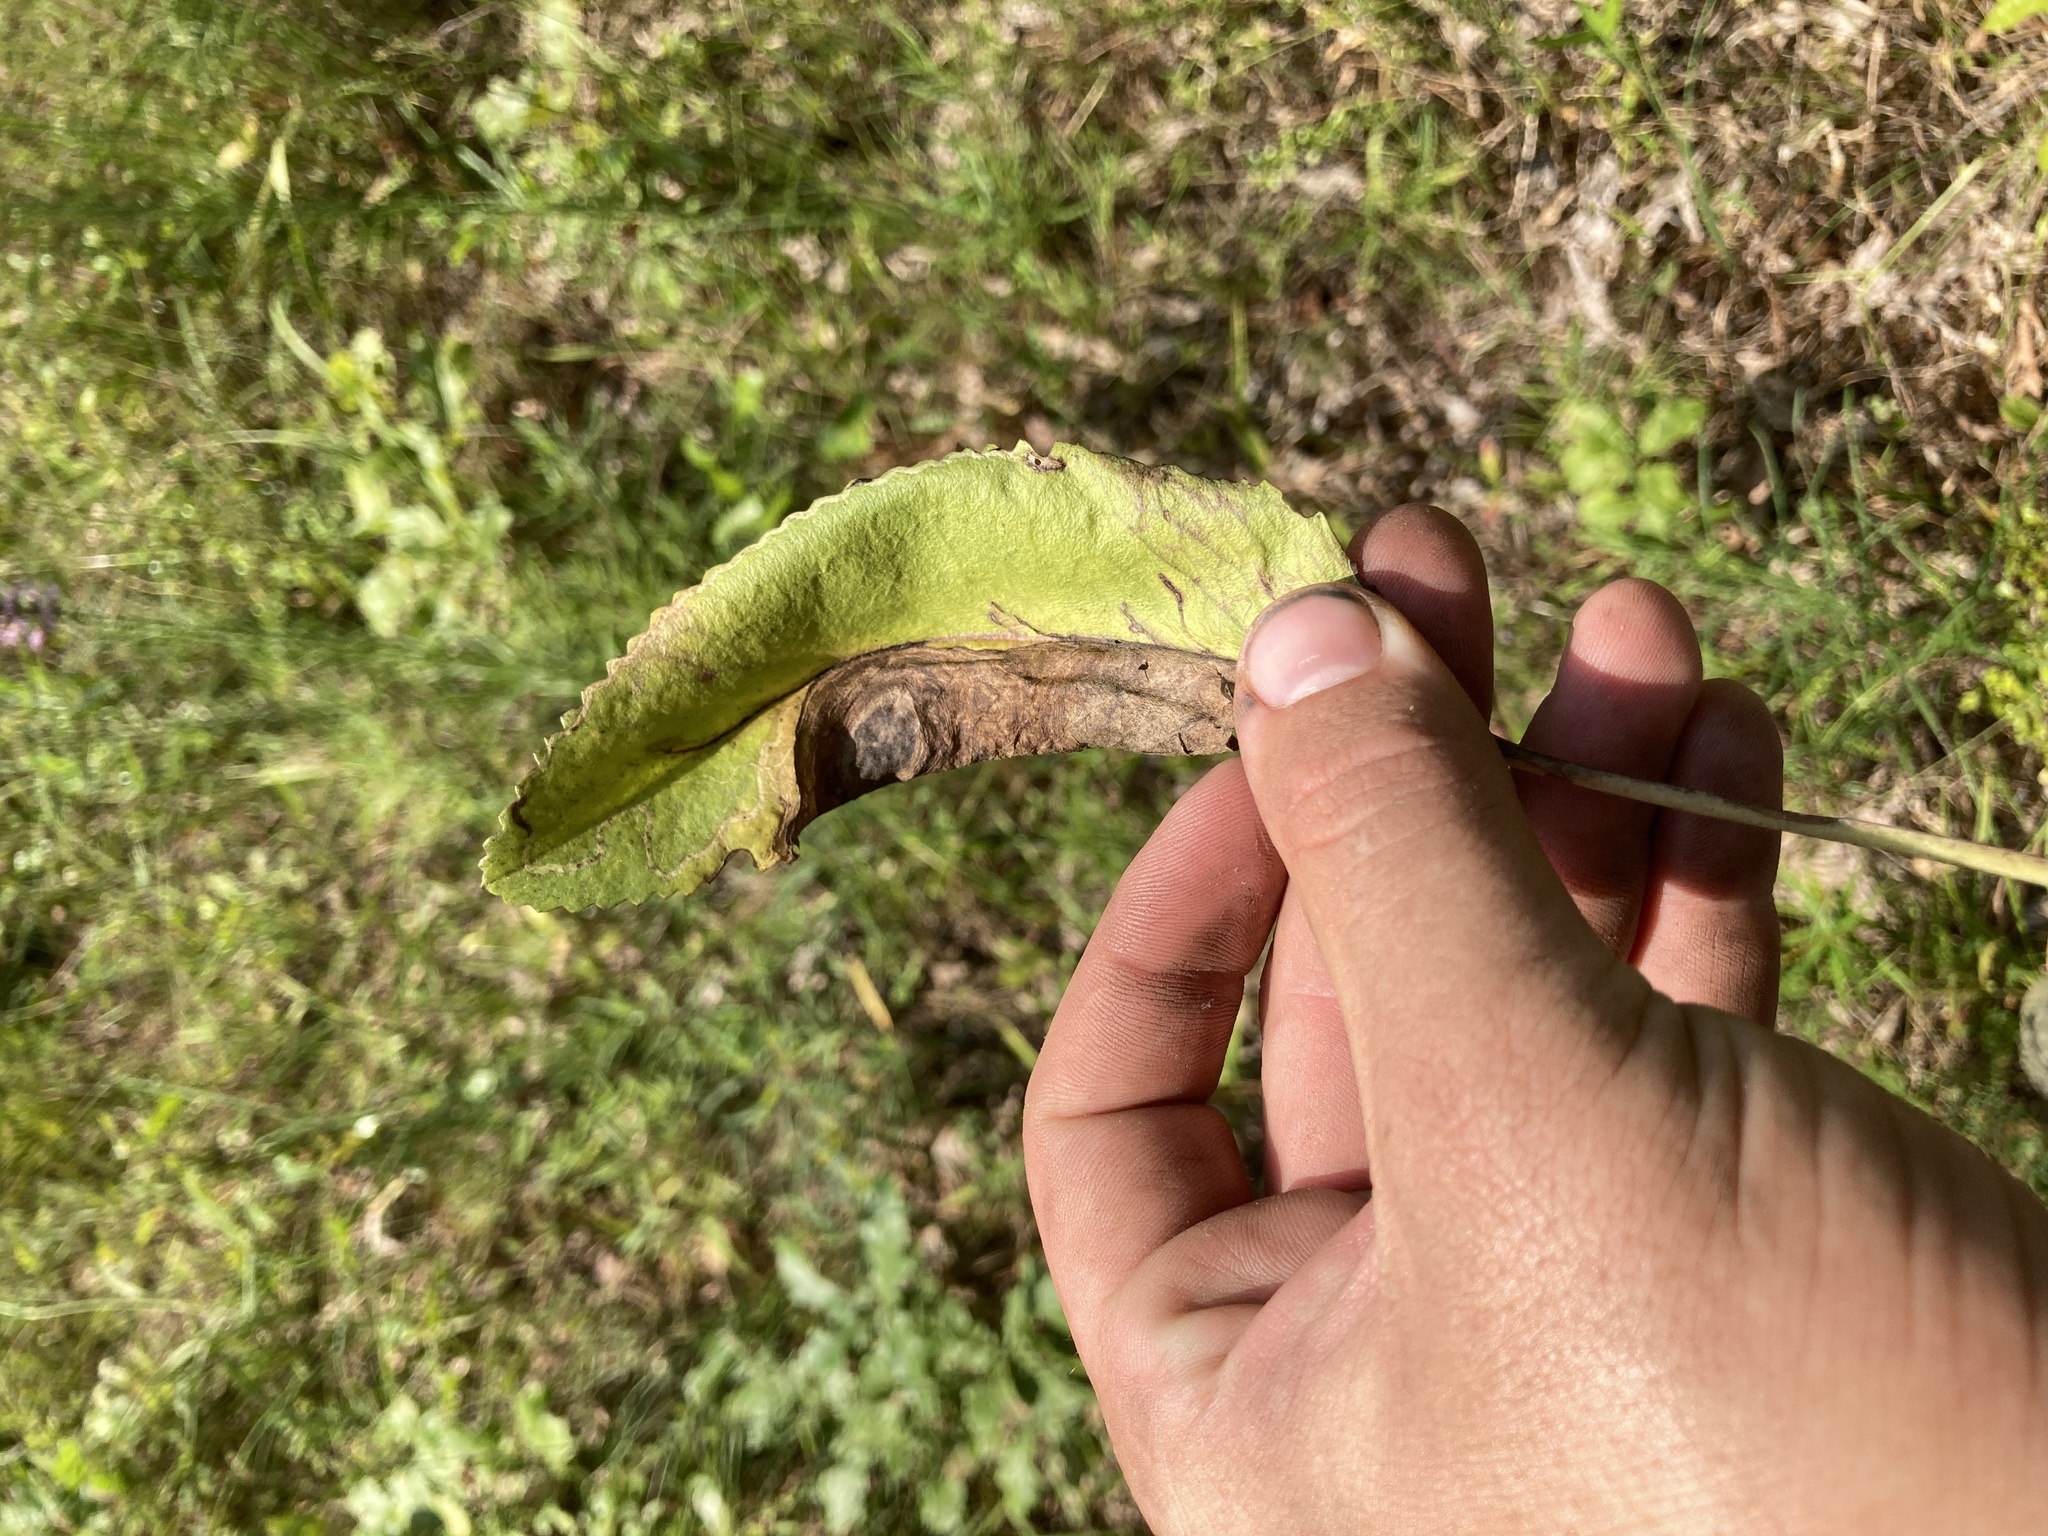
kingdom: Plantae
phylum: Tracheophyta
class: Magnoliopsida
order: Asterales
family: Asteraceae
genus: Packera
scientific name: Packera dubia
